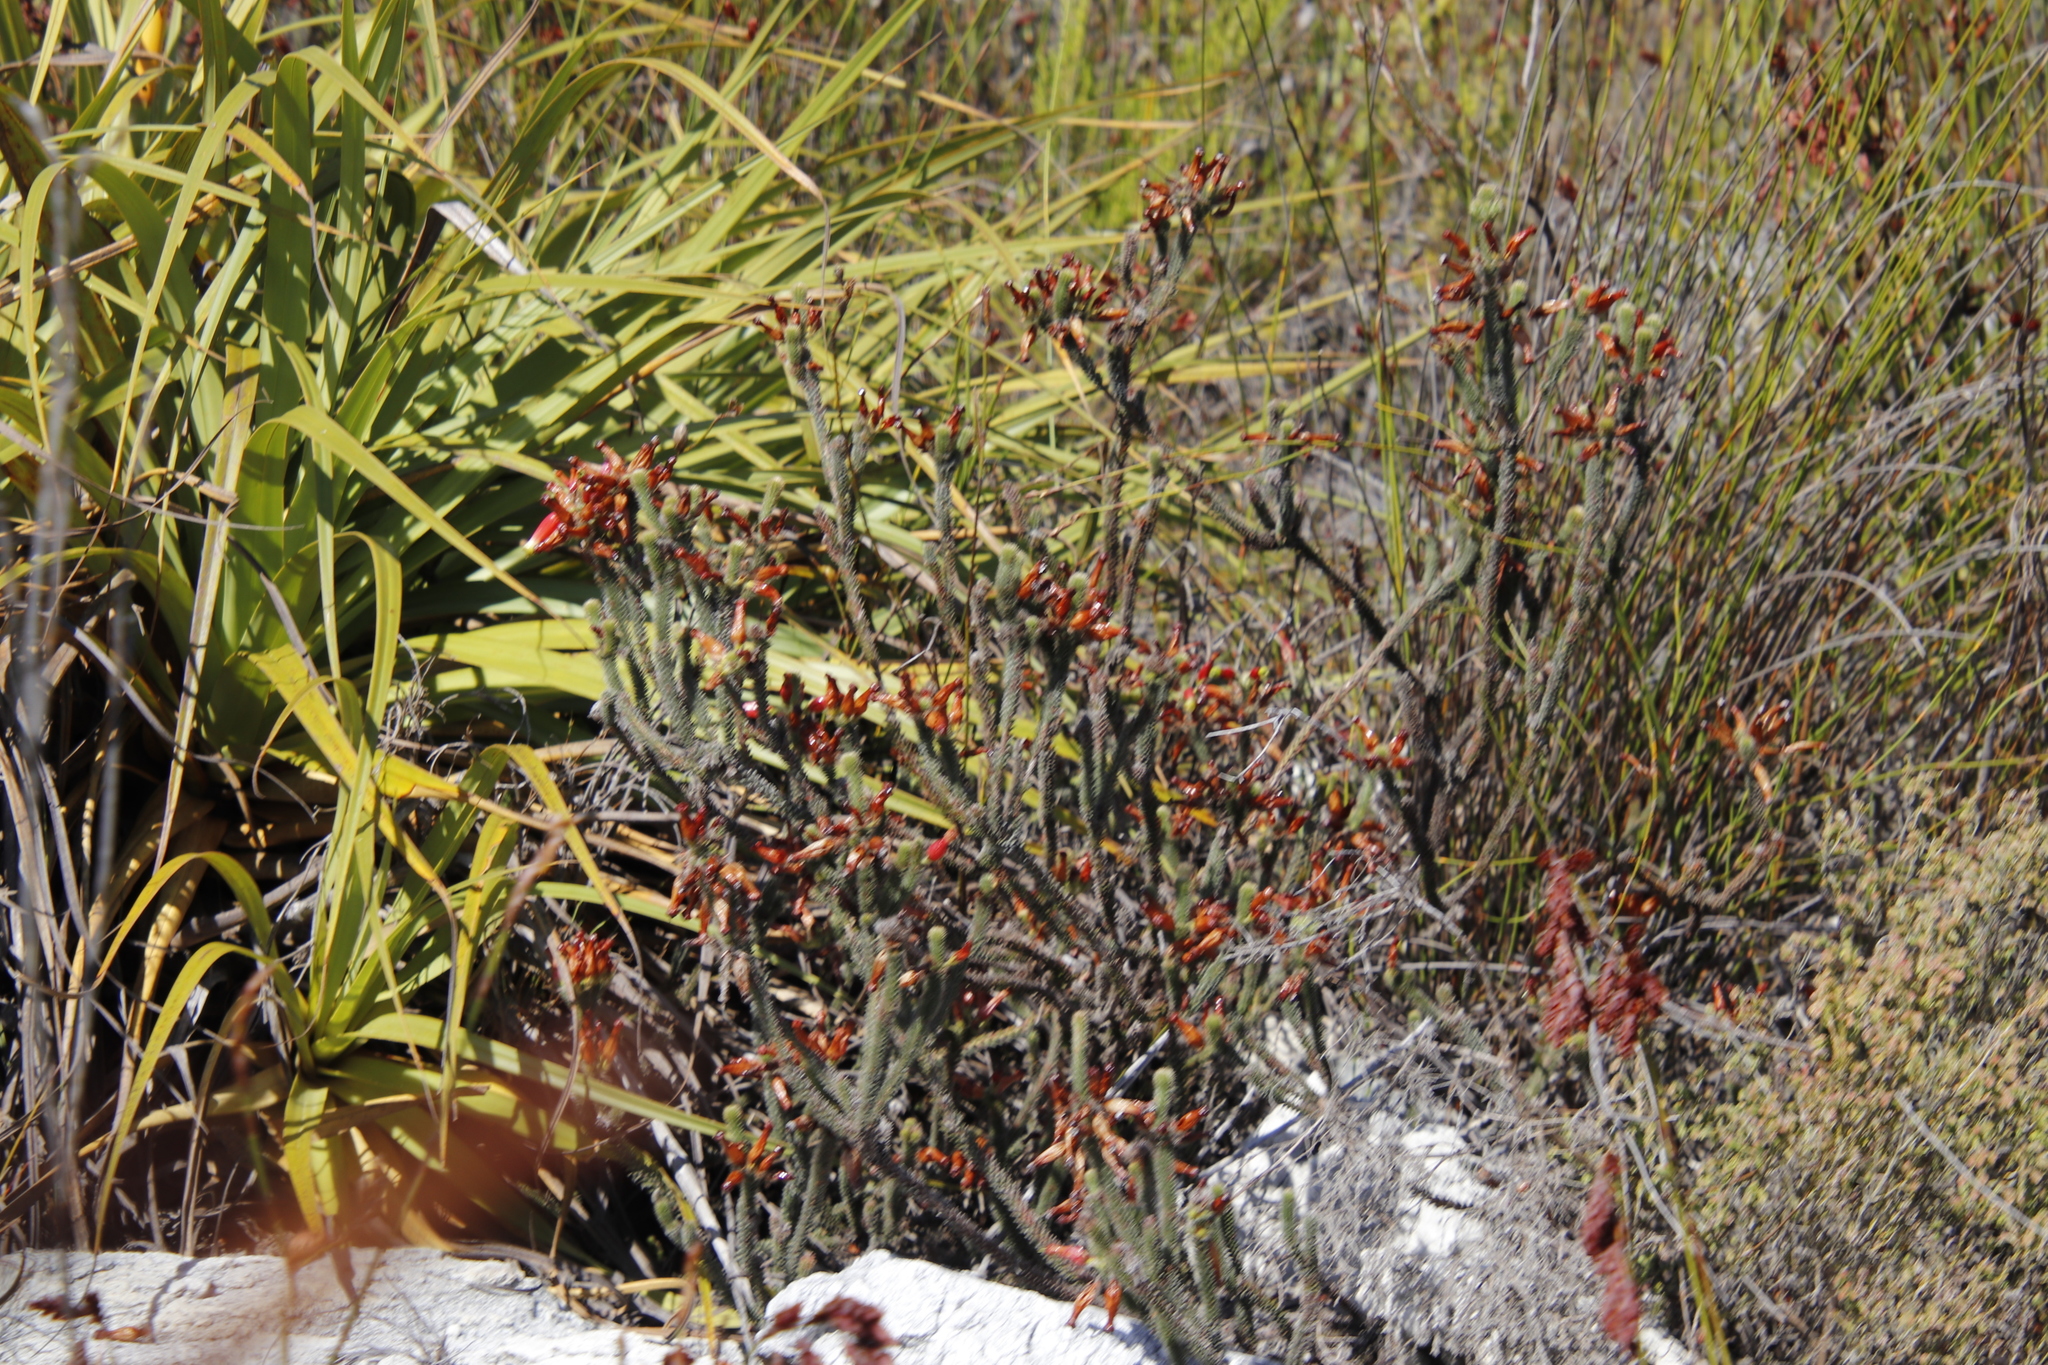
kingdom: Plantae
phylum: Tracheophyta
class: Magnoliopsida
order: Ericales
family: Ericaceae
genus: Erica
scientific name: Erica massonii
